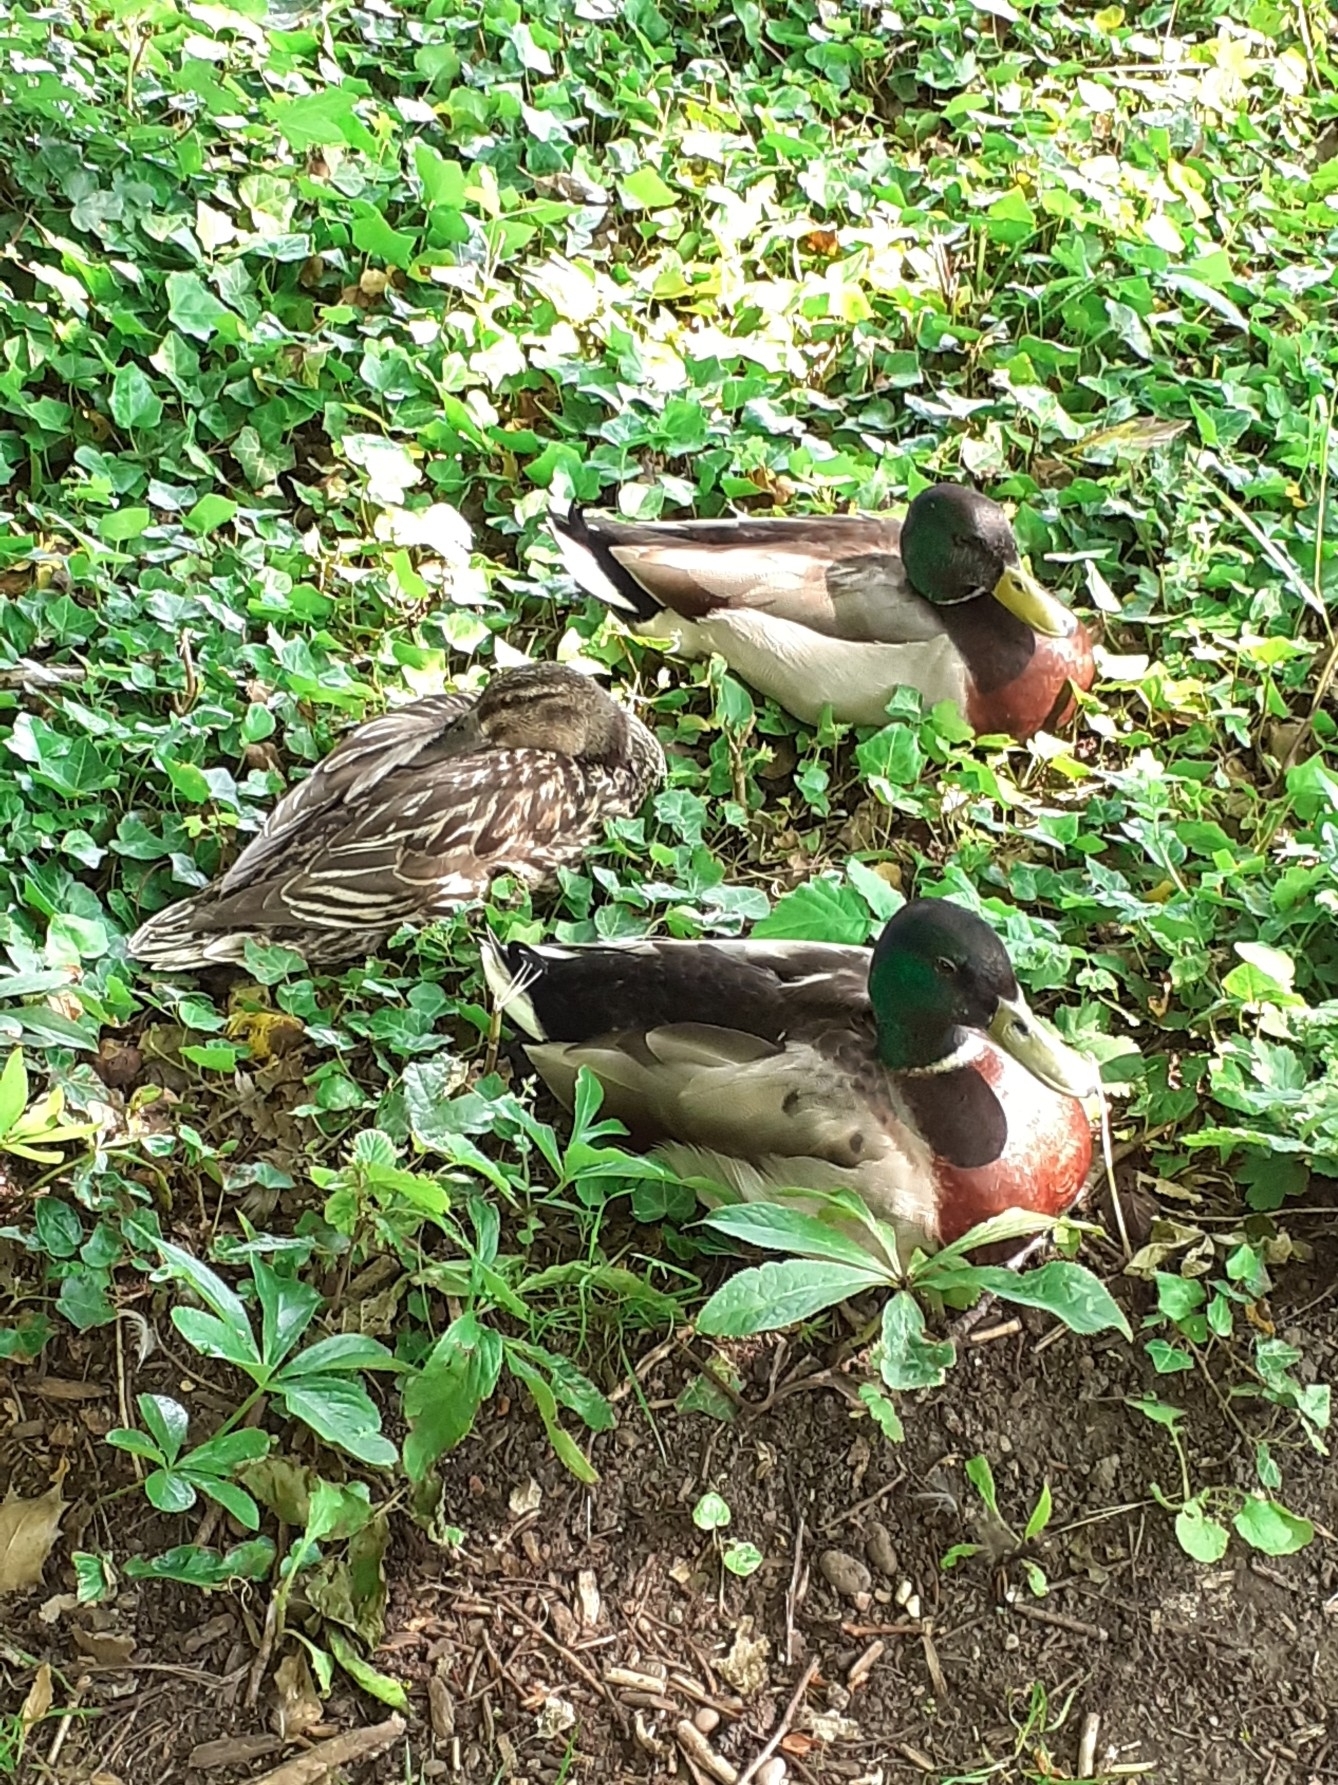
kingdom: Animalia
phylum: Chordata
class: Aves
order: Anseriformes
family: Anatidae
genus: Anas
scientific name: Anas platyrhynchos
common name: Mallard
